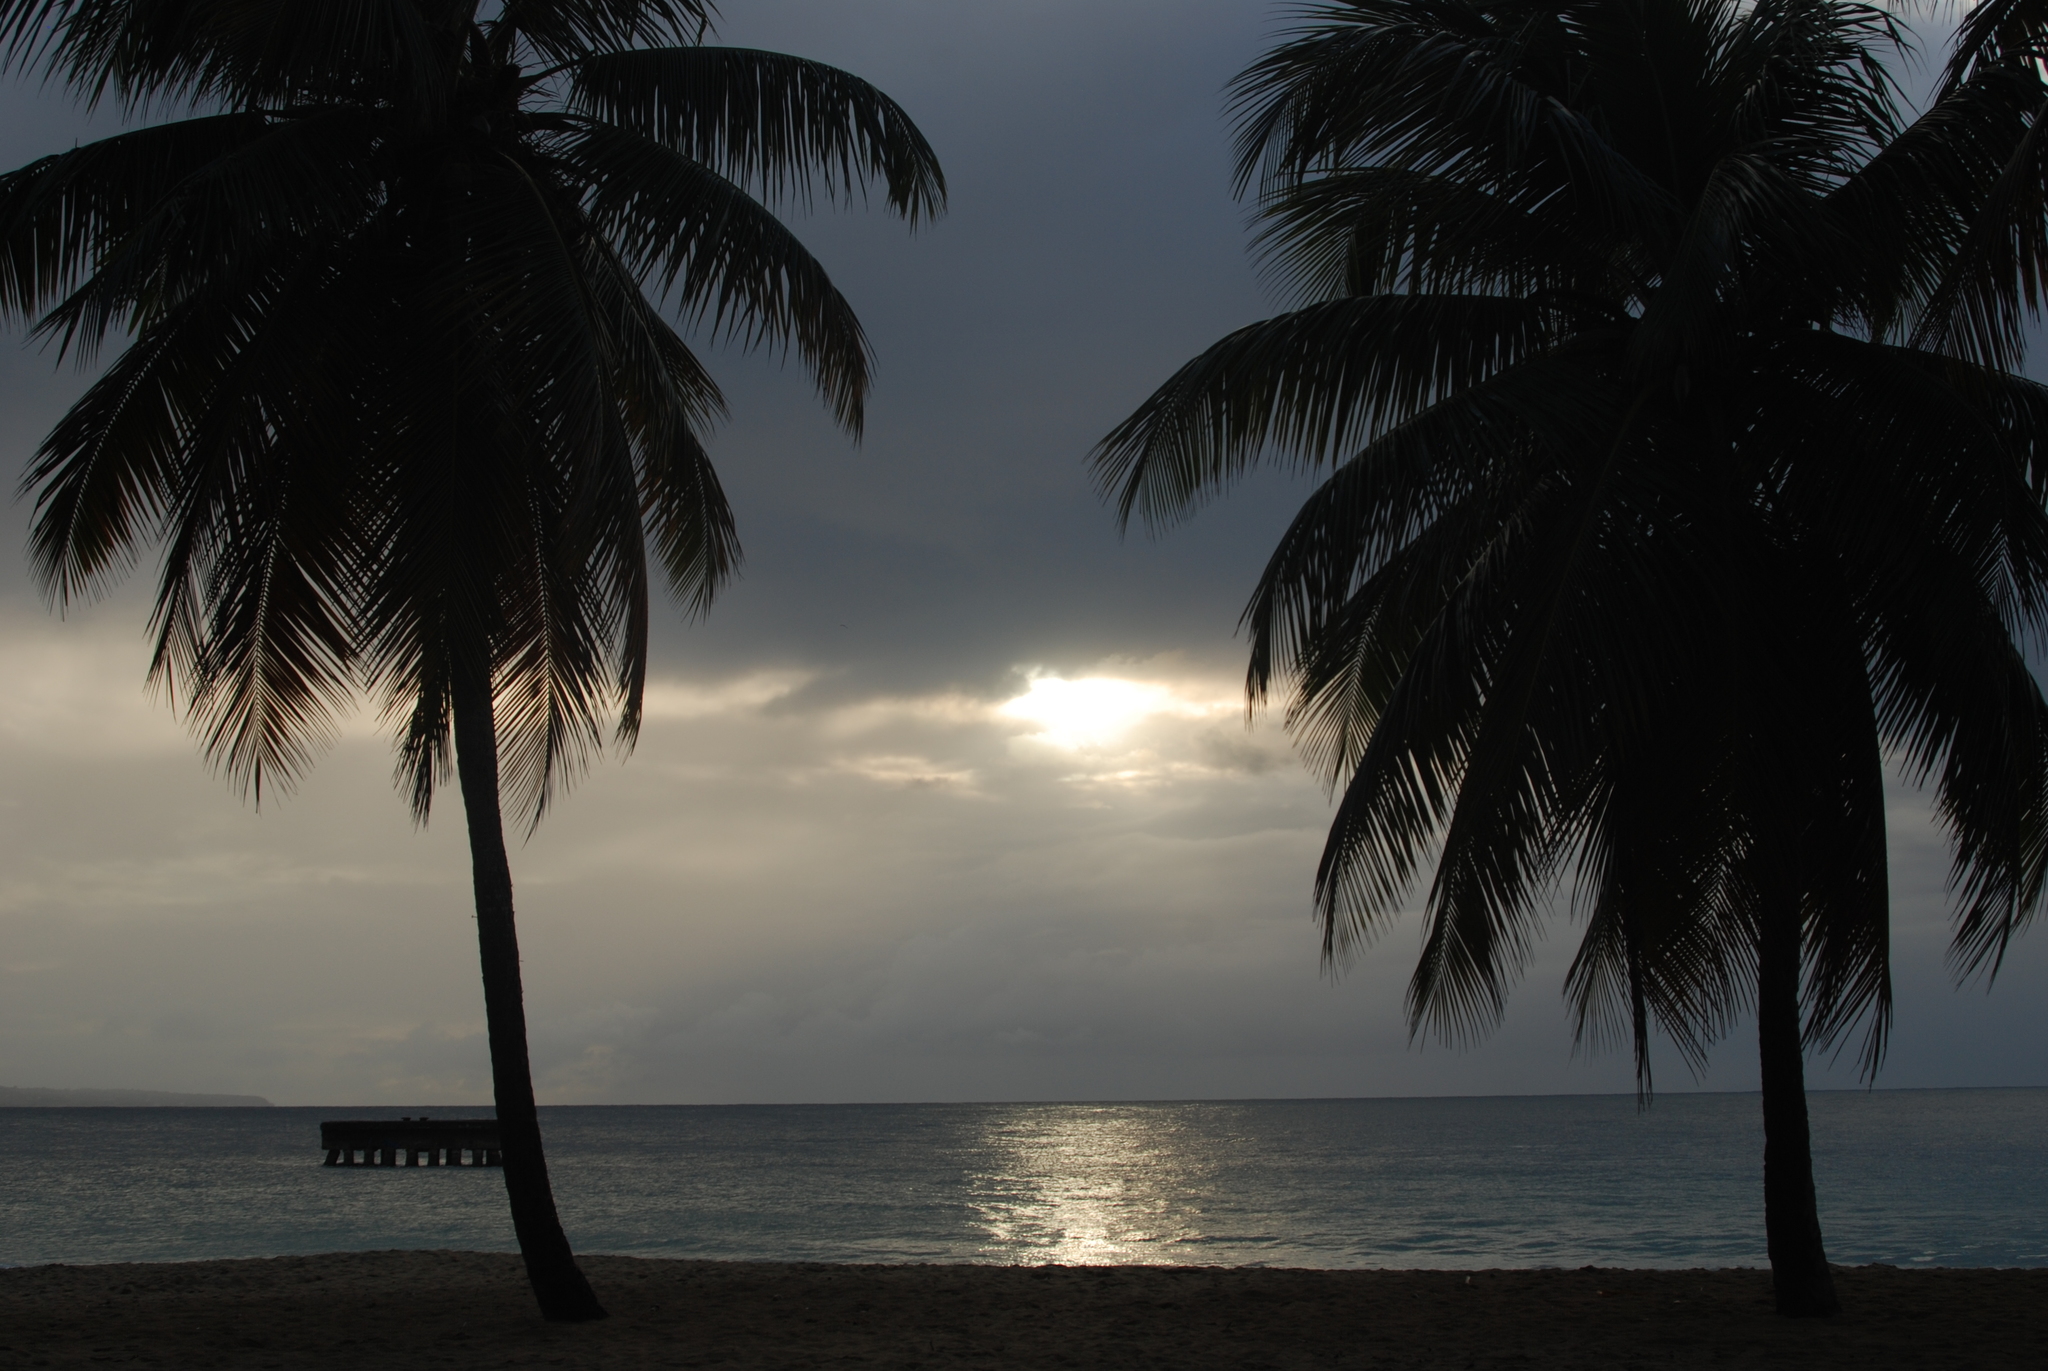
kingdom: Plantae
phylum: Tracheophyta
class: Liliopsida
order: Arecales
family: Arecaceae
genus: Cocos
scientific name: Cocos nucifera
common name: Coconut palm
